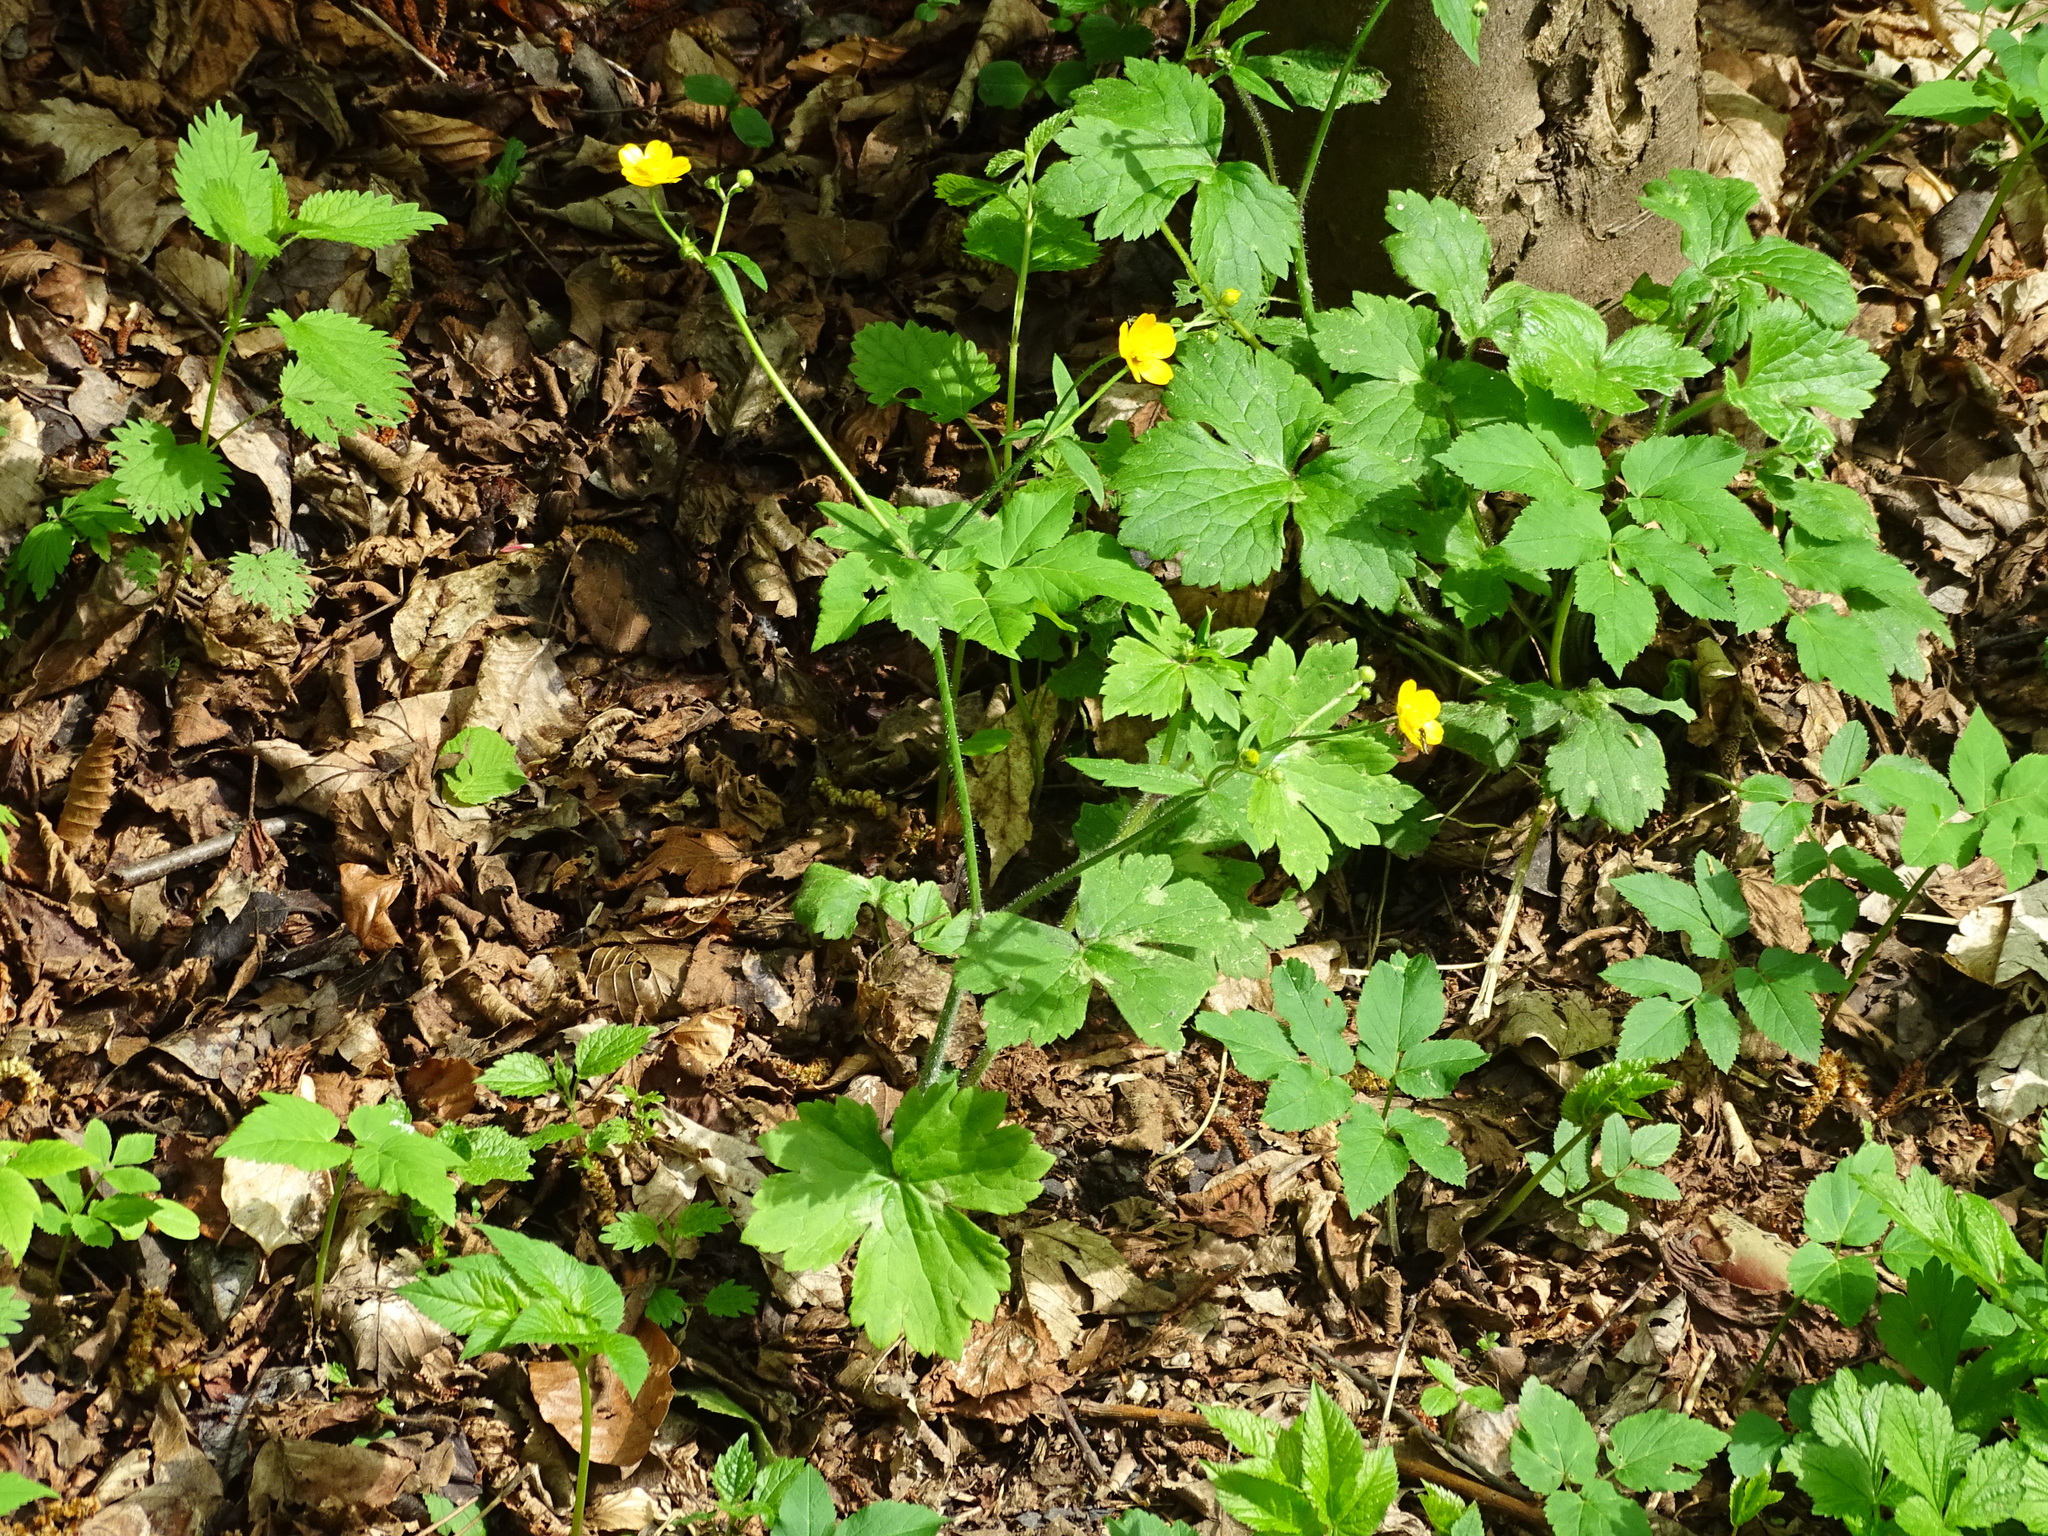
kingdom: Plantae
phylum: Tracheophyta
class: Magnoliopsida
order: Ranunculales
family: Ranunculaceae
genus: Ranunculus
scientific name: Ranunculus lanuginosus
